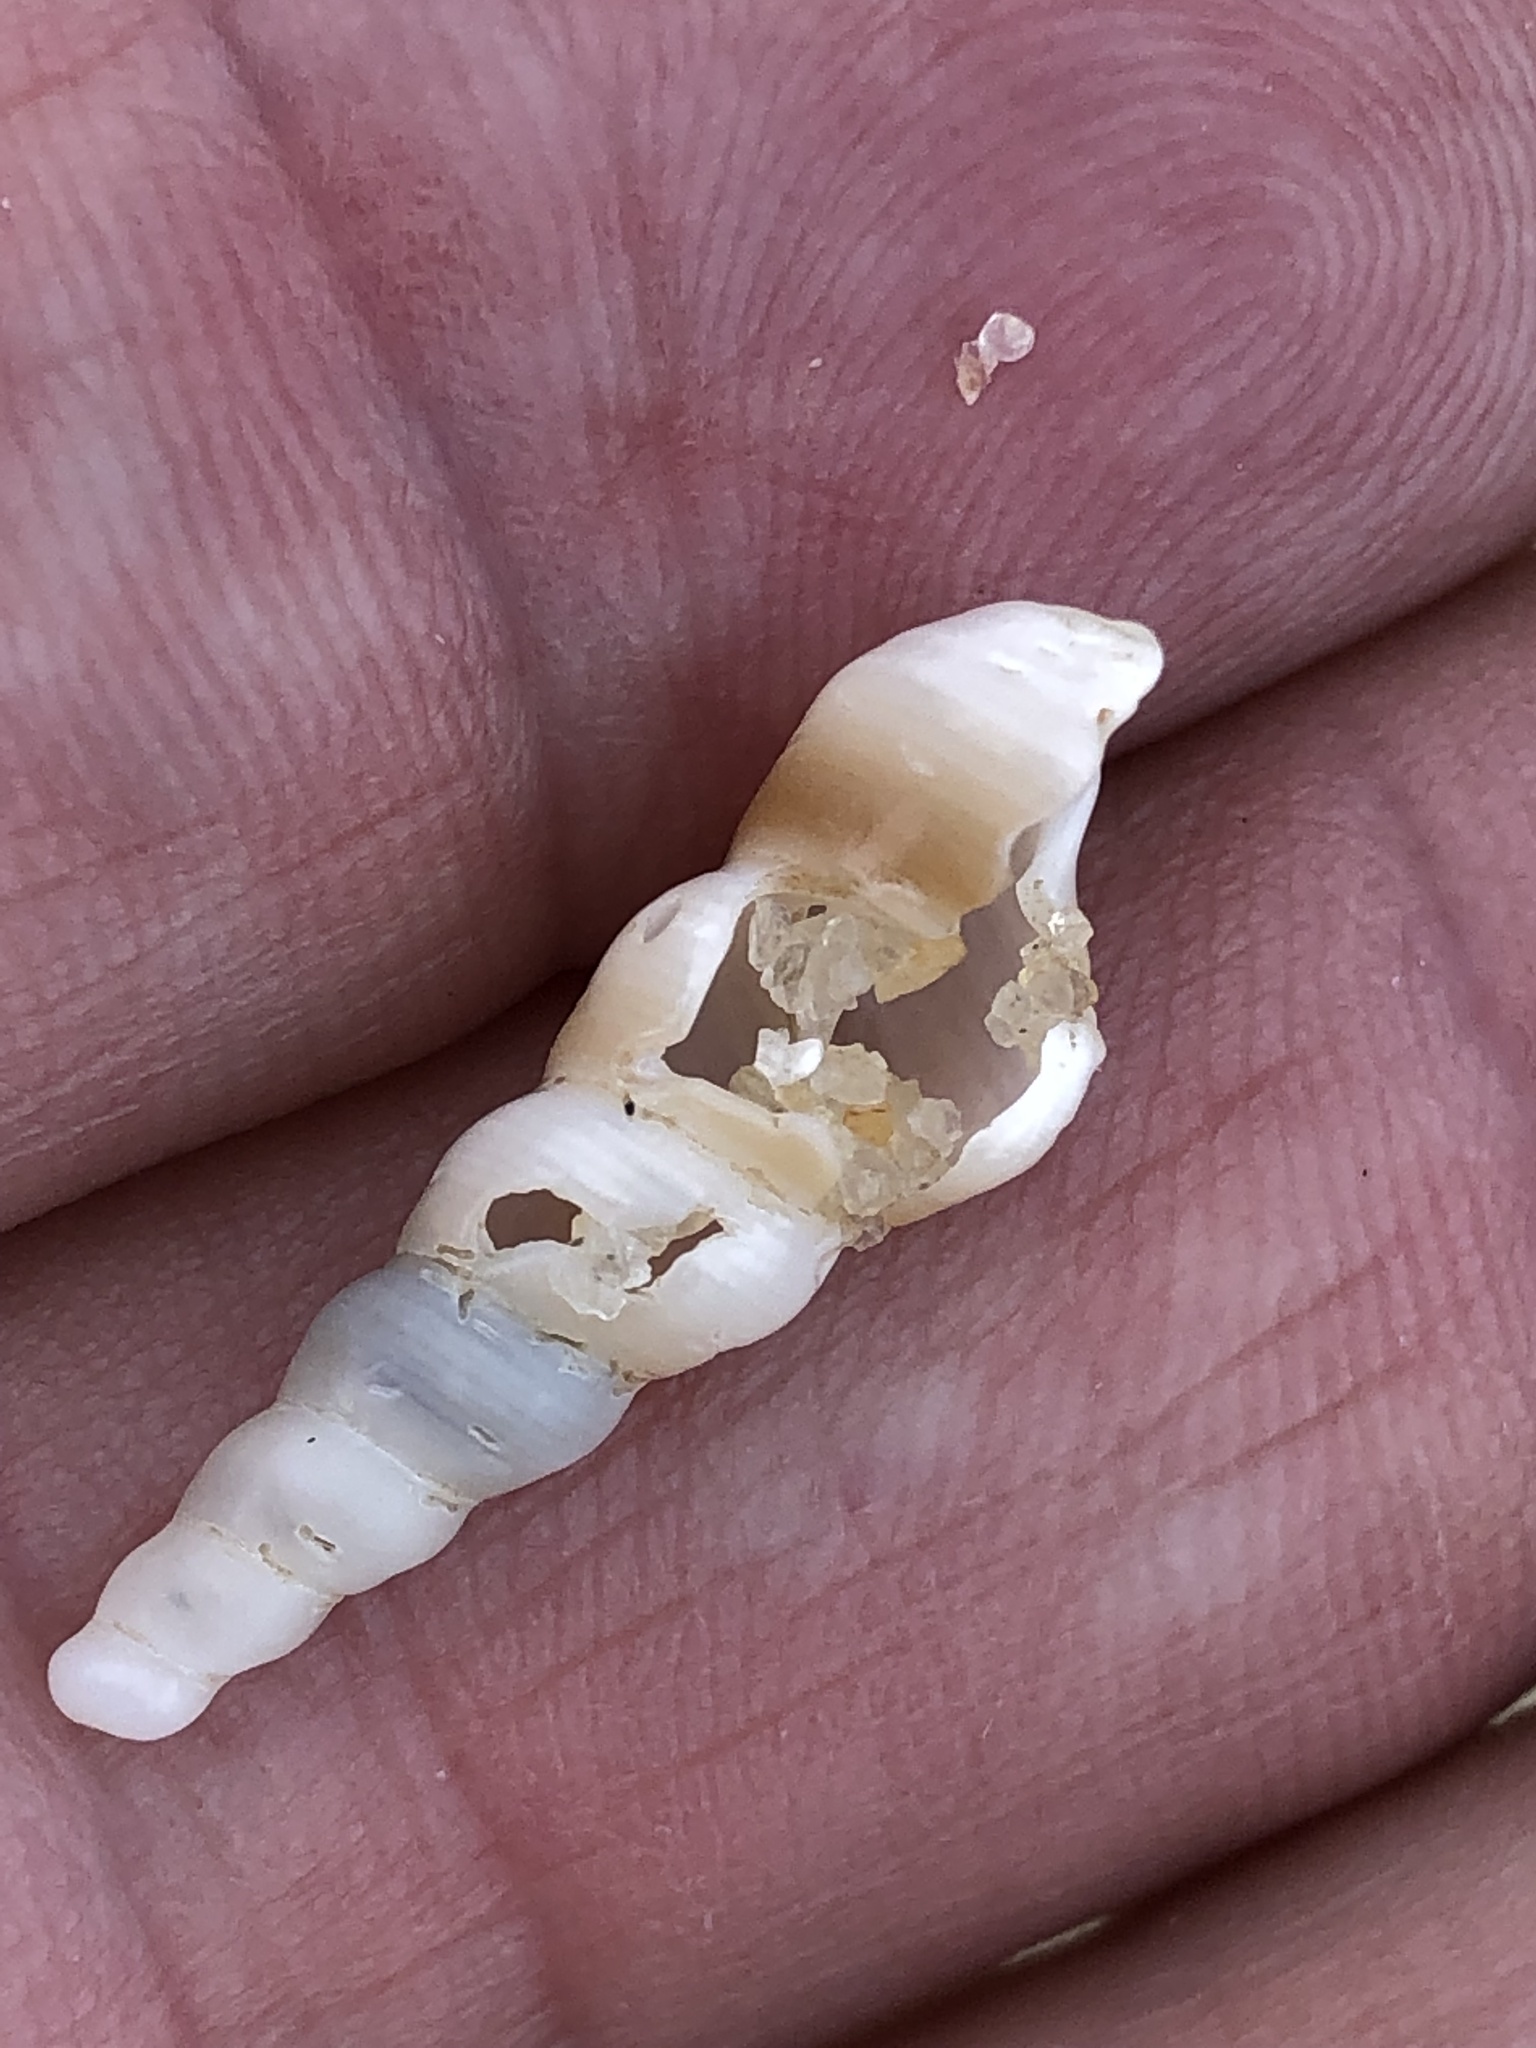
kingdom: Animalia
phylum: Mollusca
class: Gastropoda
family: Turritellidae
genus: Turritella
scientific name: Turritella duplicata
